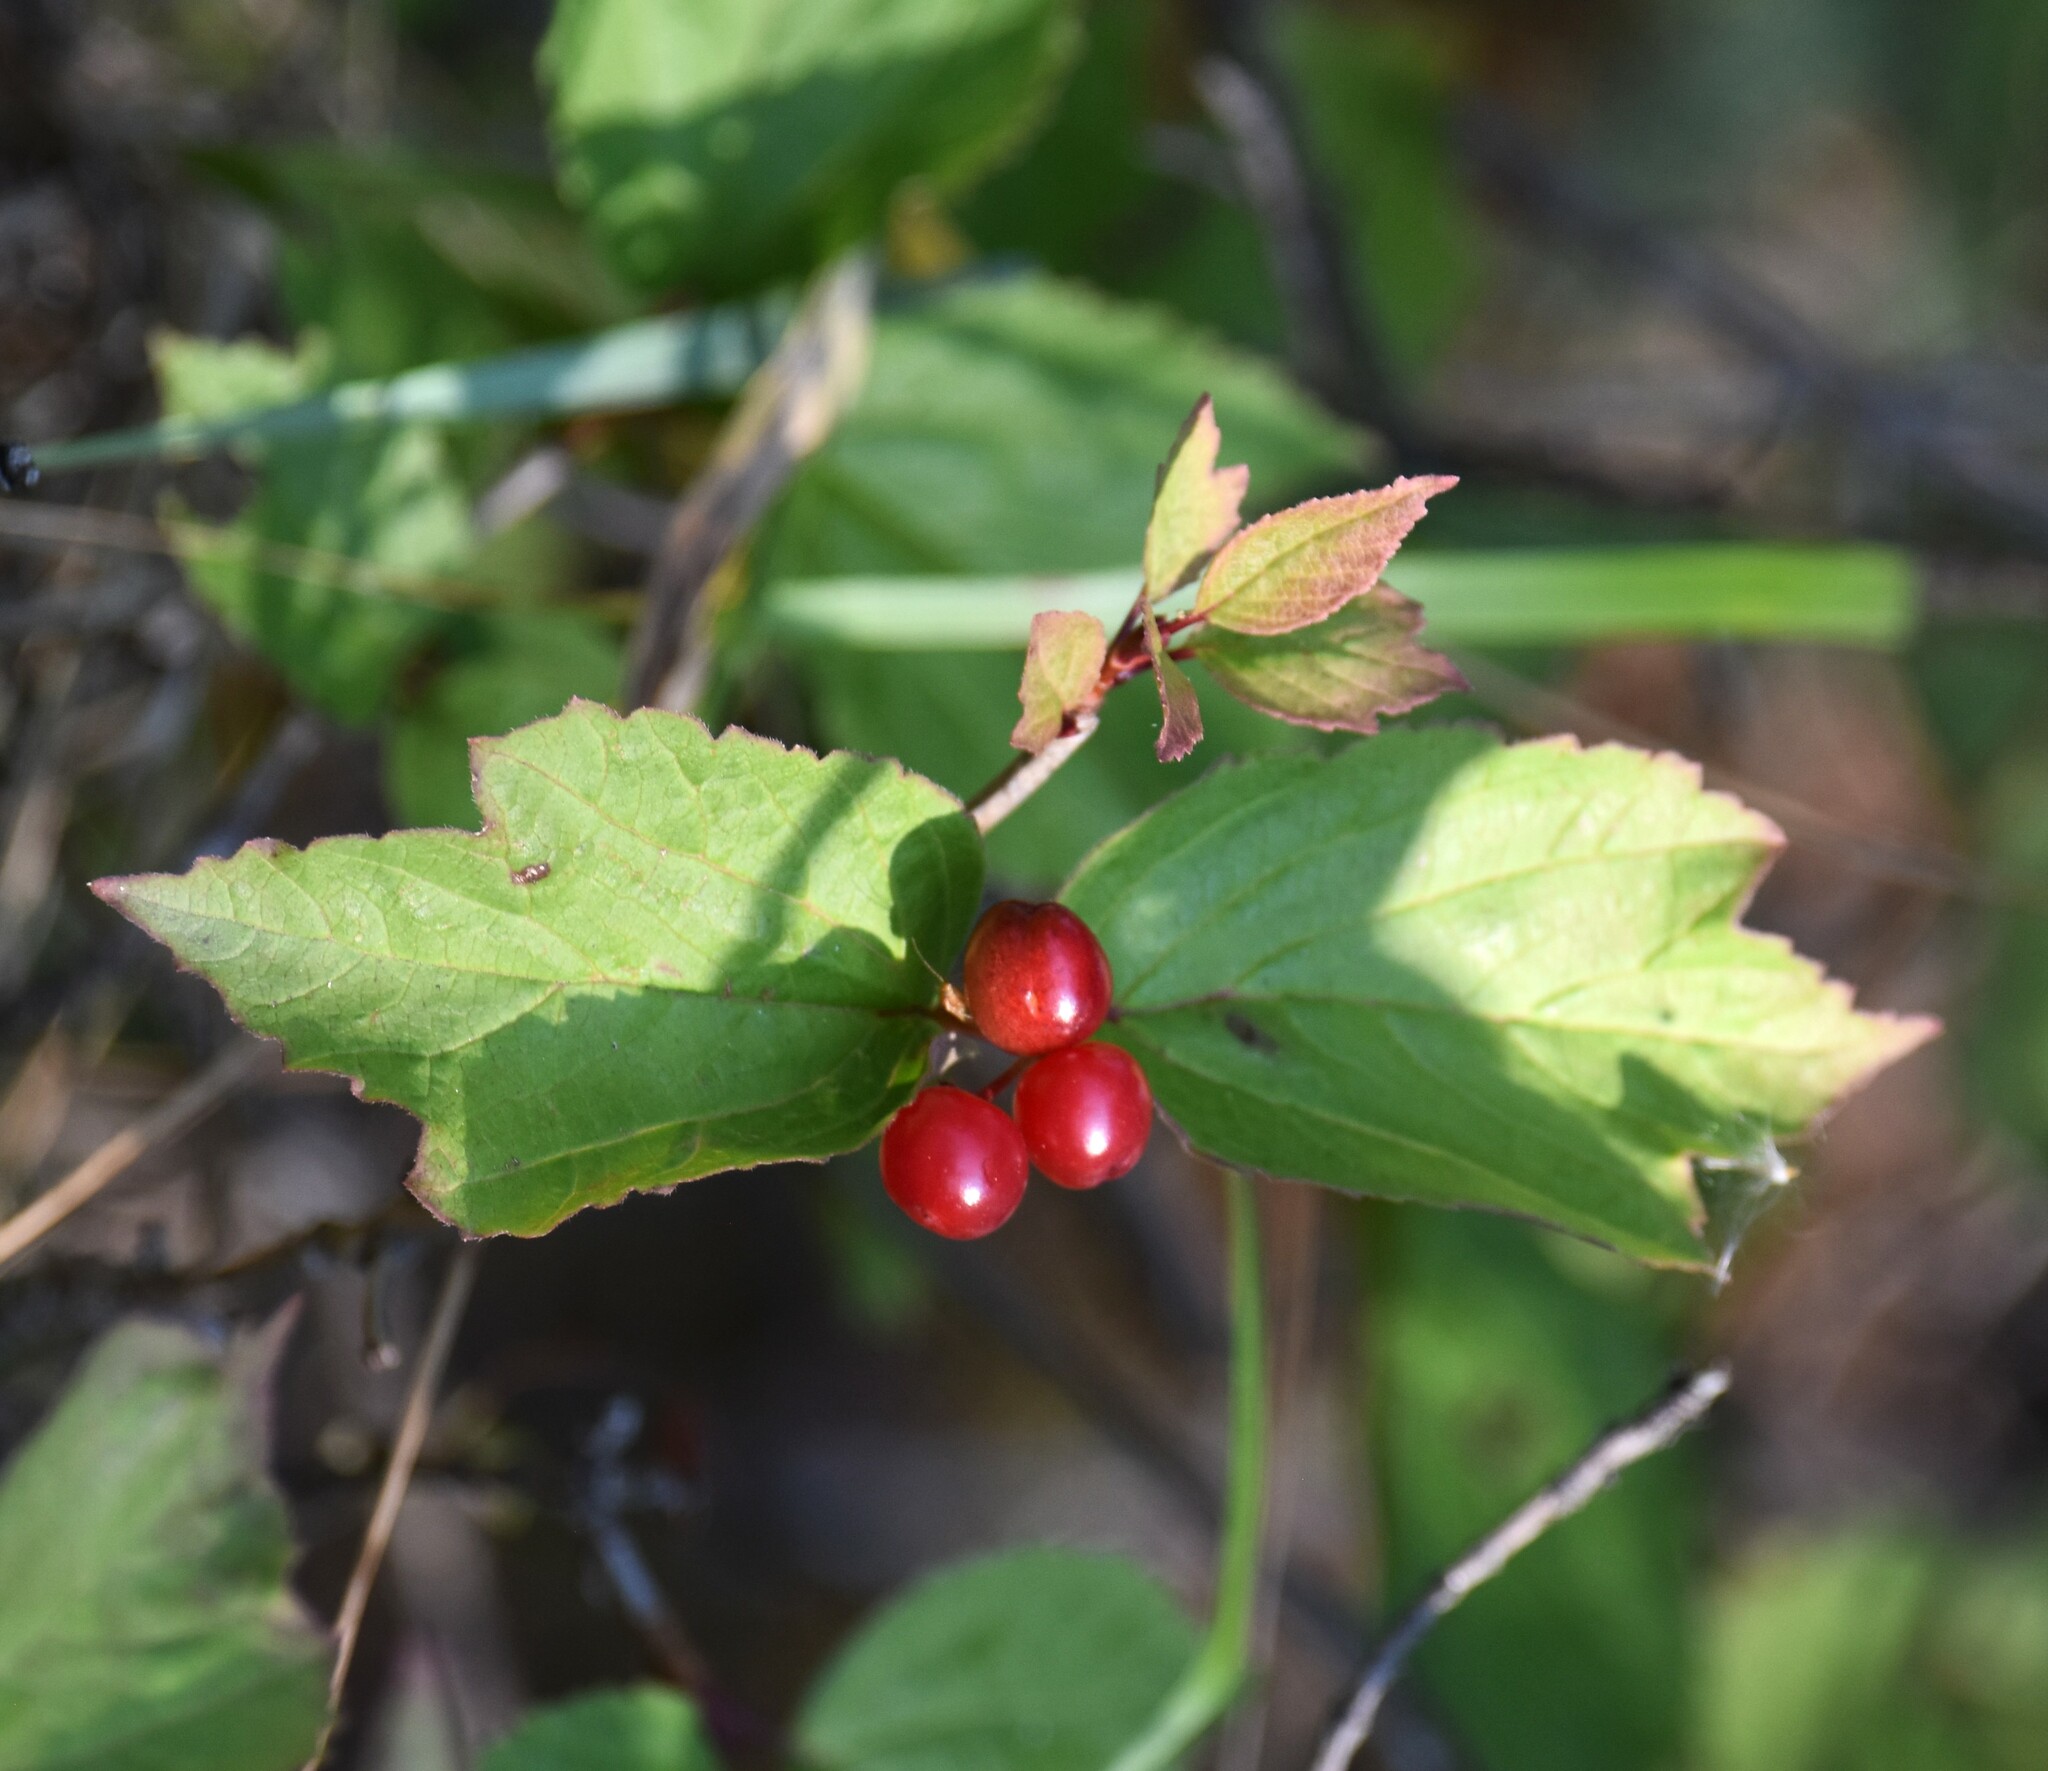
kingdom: Plantae
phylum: Tracheophyta
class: Magnoliopsida
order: Dipsacales
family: Viburnaceae
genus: Viburnum
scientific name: Viburnum edule
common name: Mooseberry
